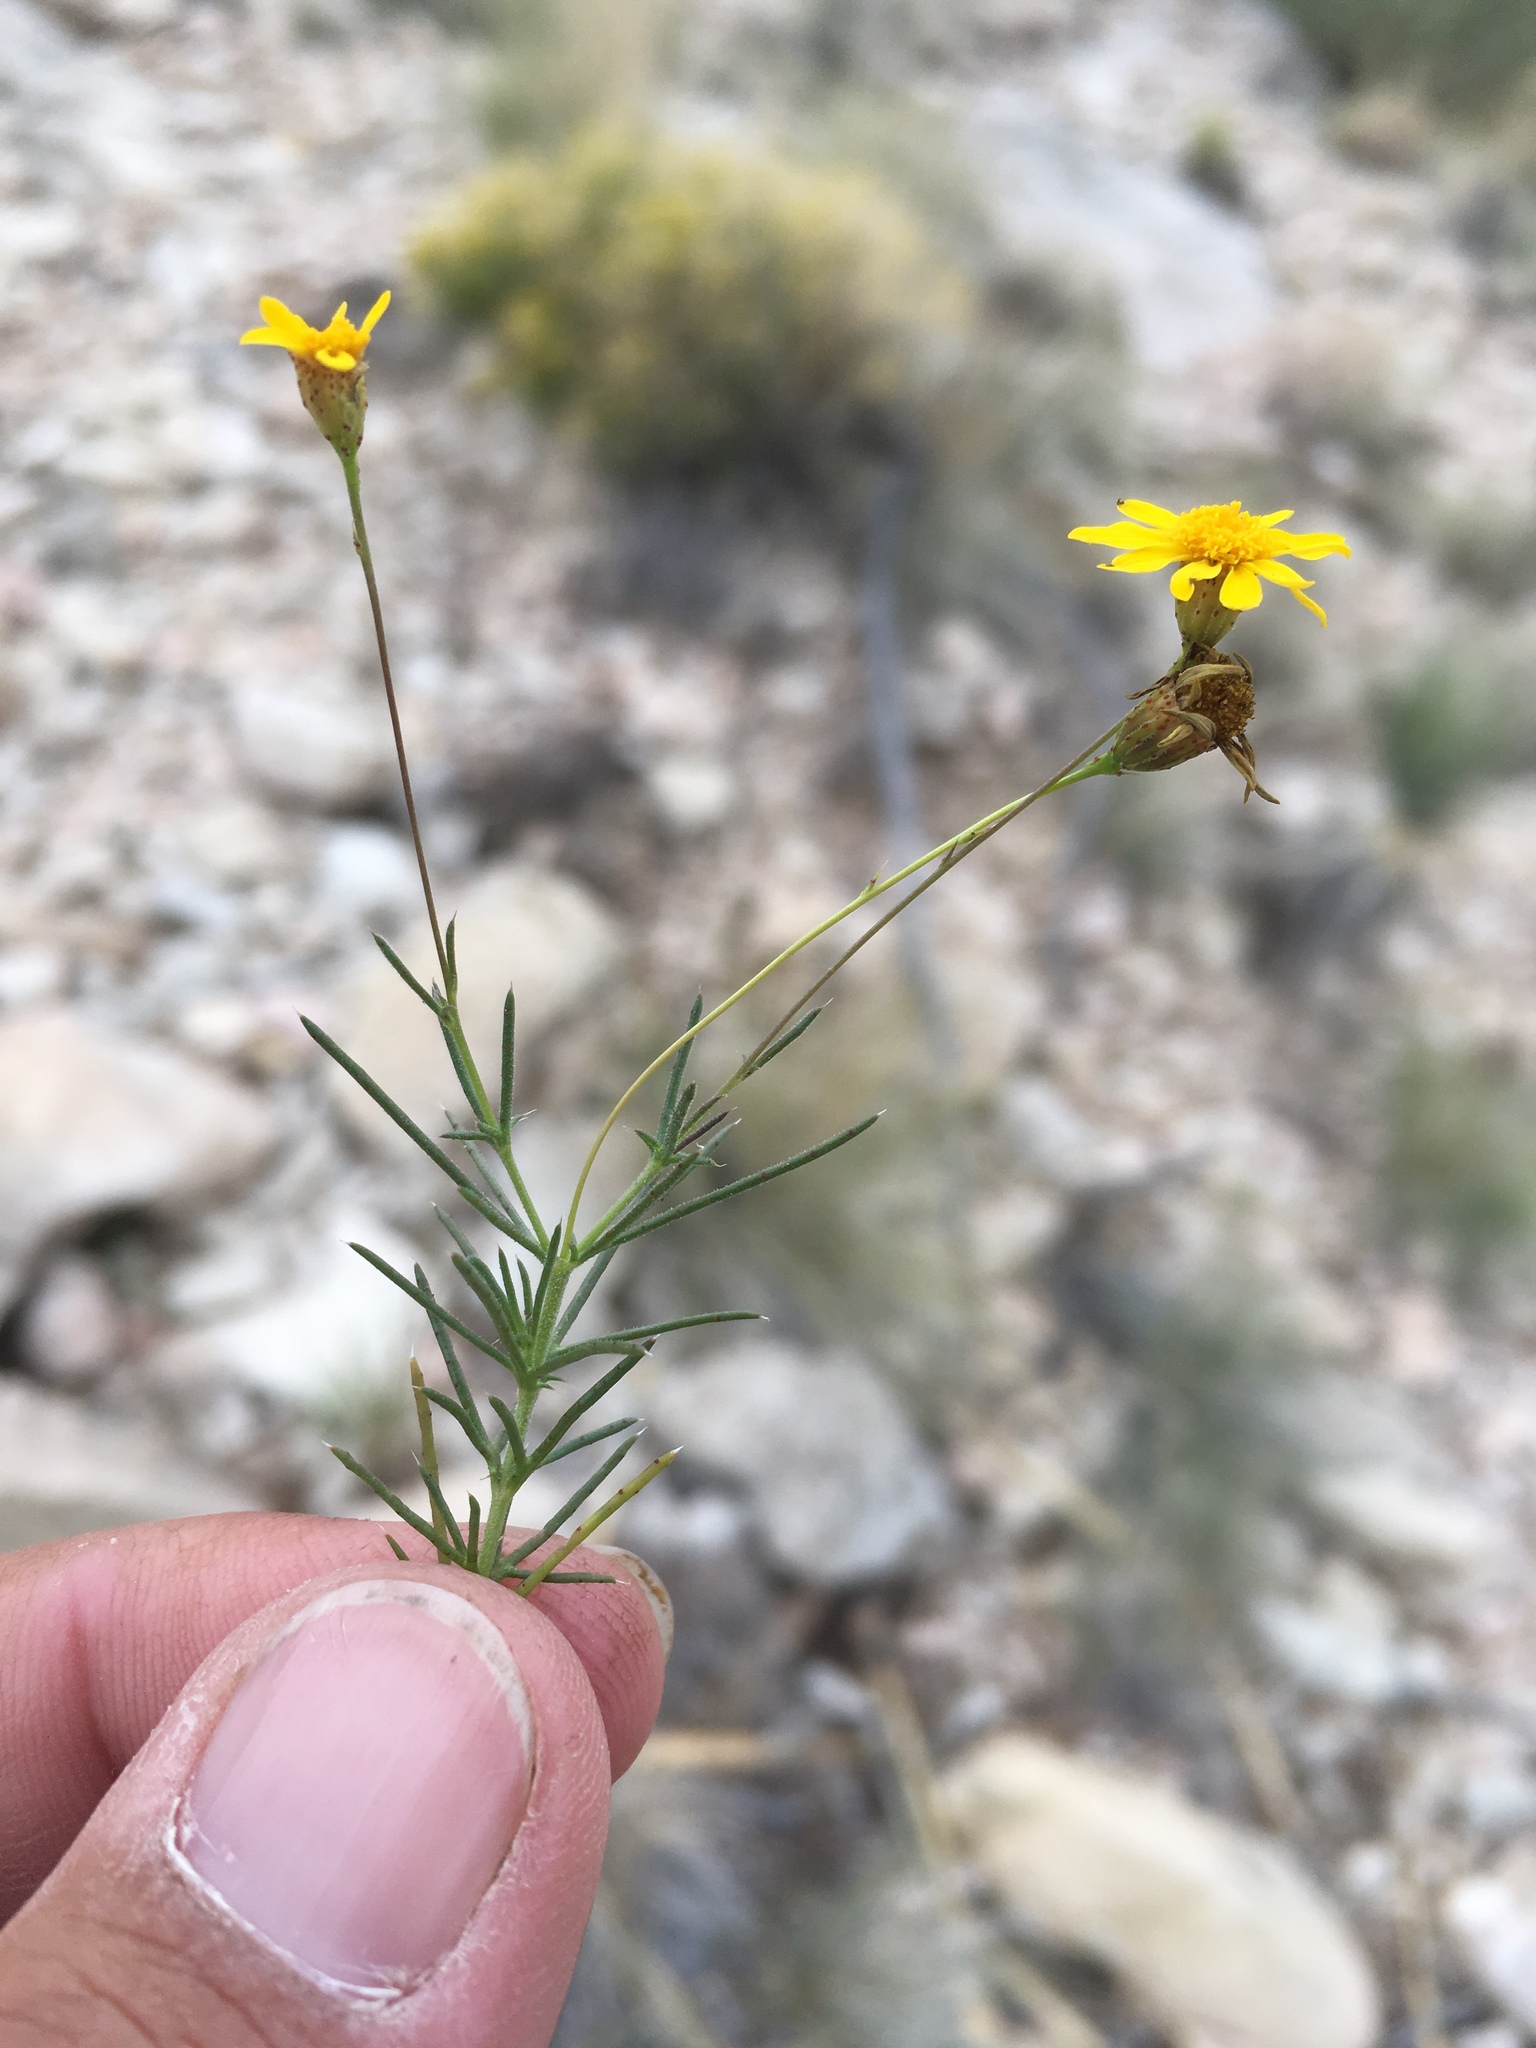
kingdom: Plantae
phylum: Tracheophyta
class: Magnoliopsida
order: Asterales
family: Asteraceae
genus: Thymophylla
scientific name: Thymophylla pentachaeta
